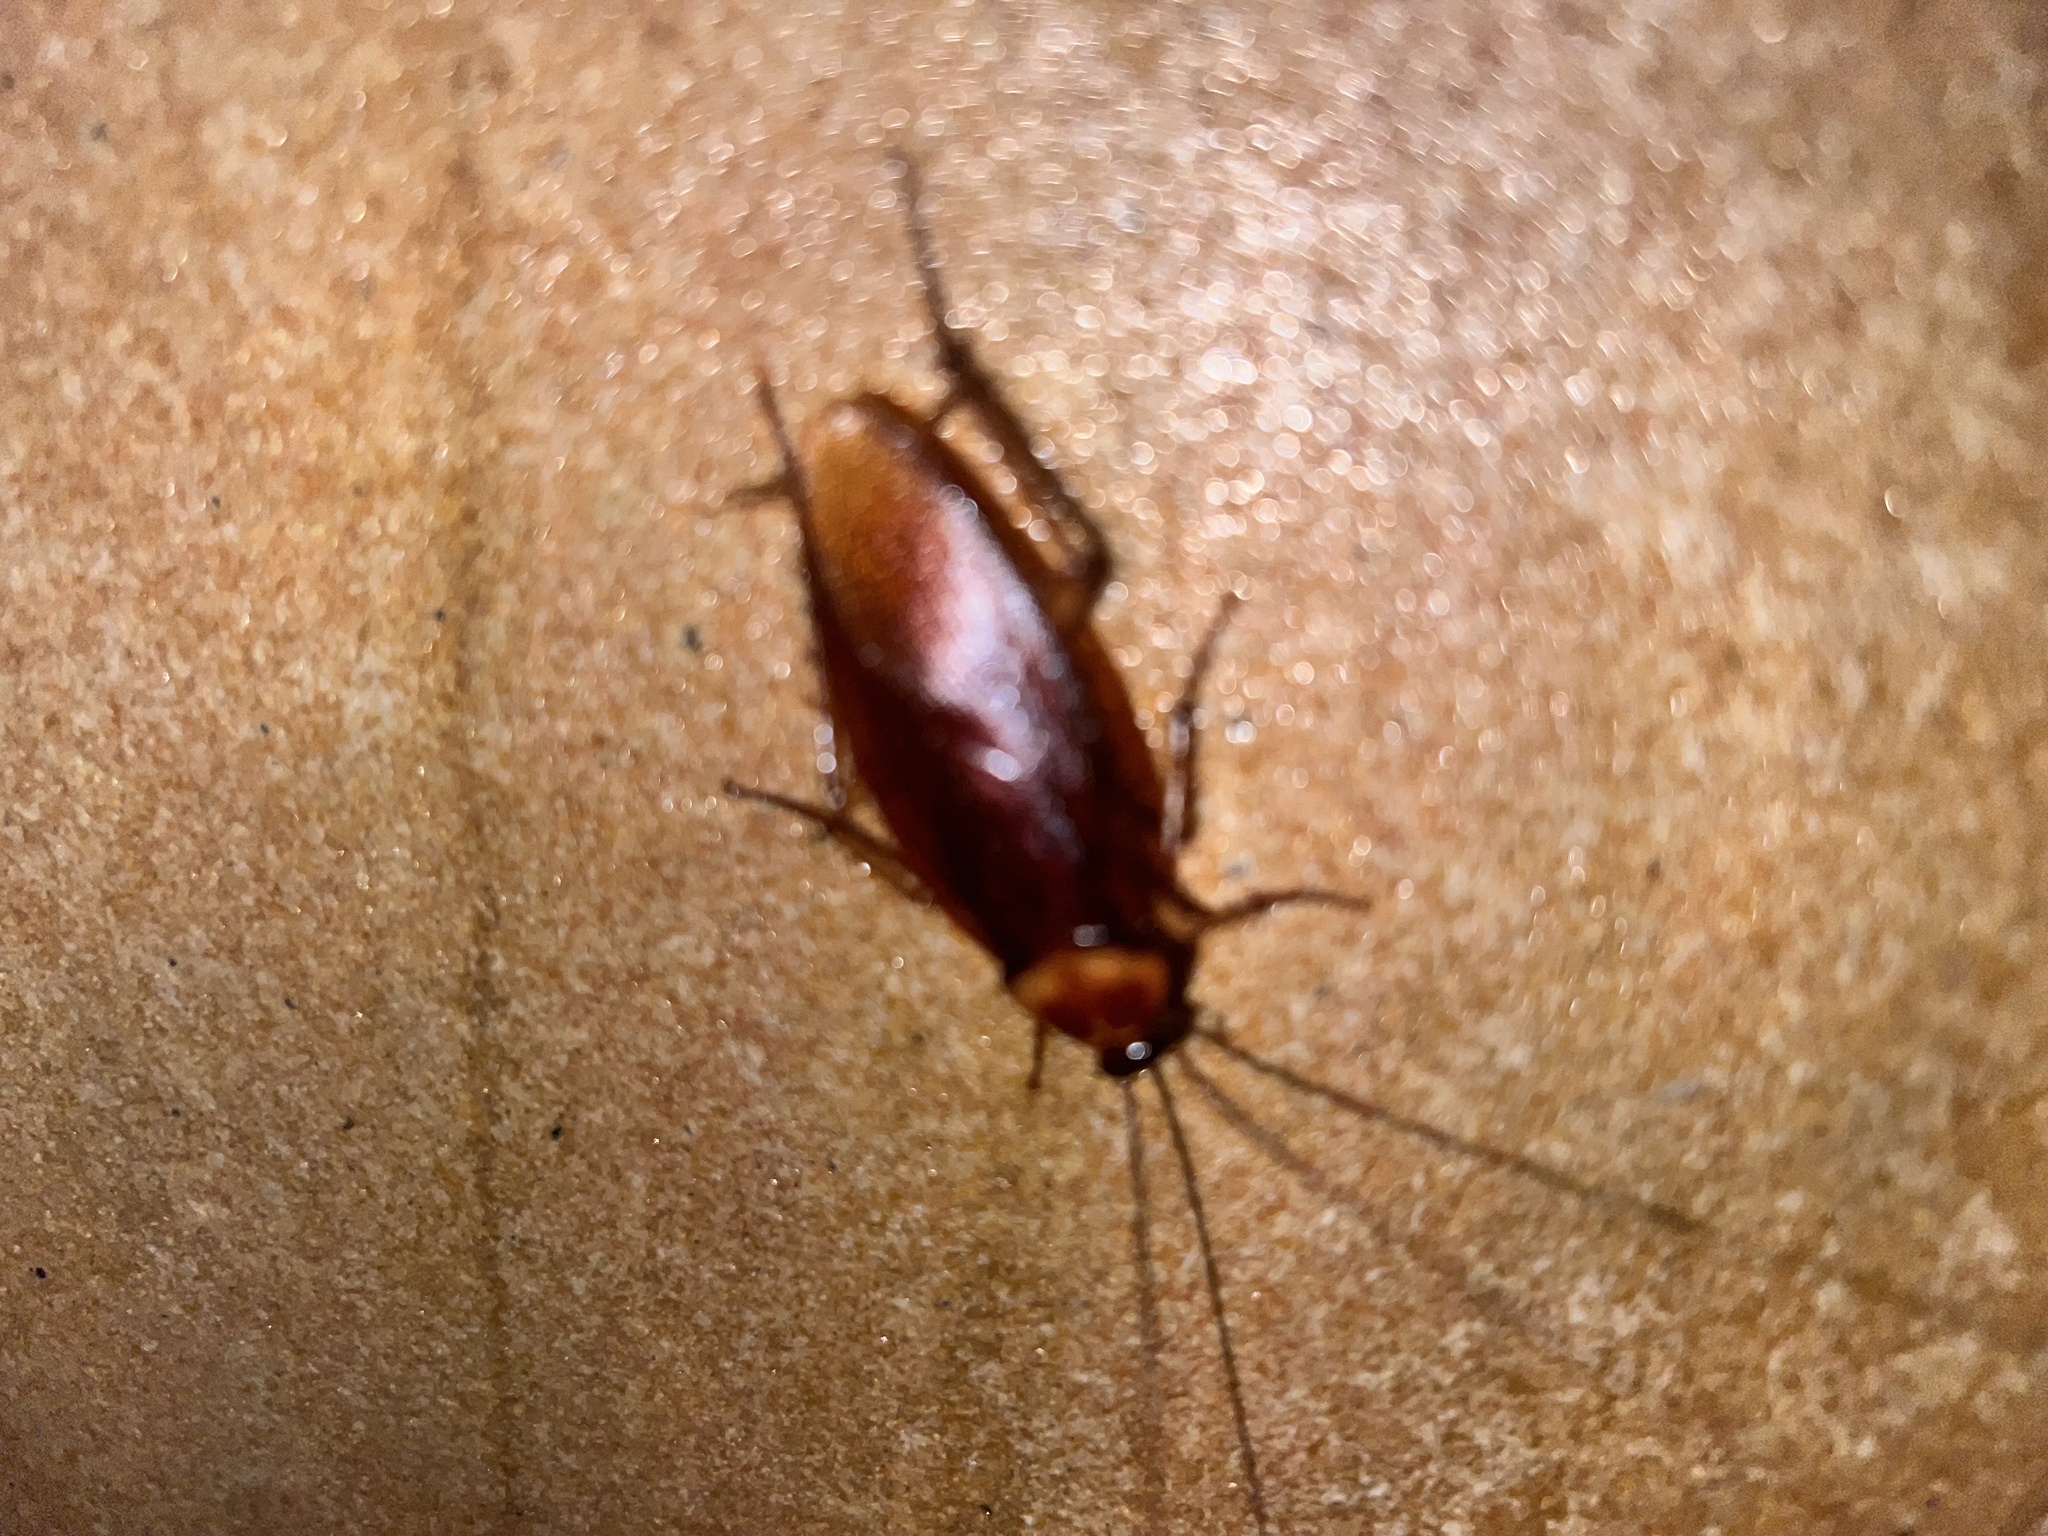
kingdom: Animalia
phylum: Arthropoda
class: Insecta
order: Blattodea
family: Blattidae
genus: Periplaneta
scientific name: Periplaneta americana
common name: American cockroach
